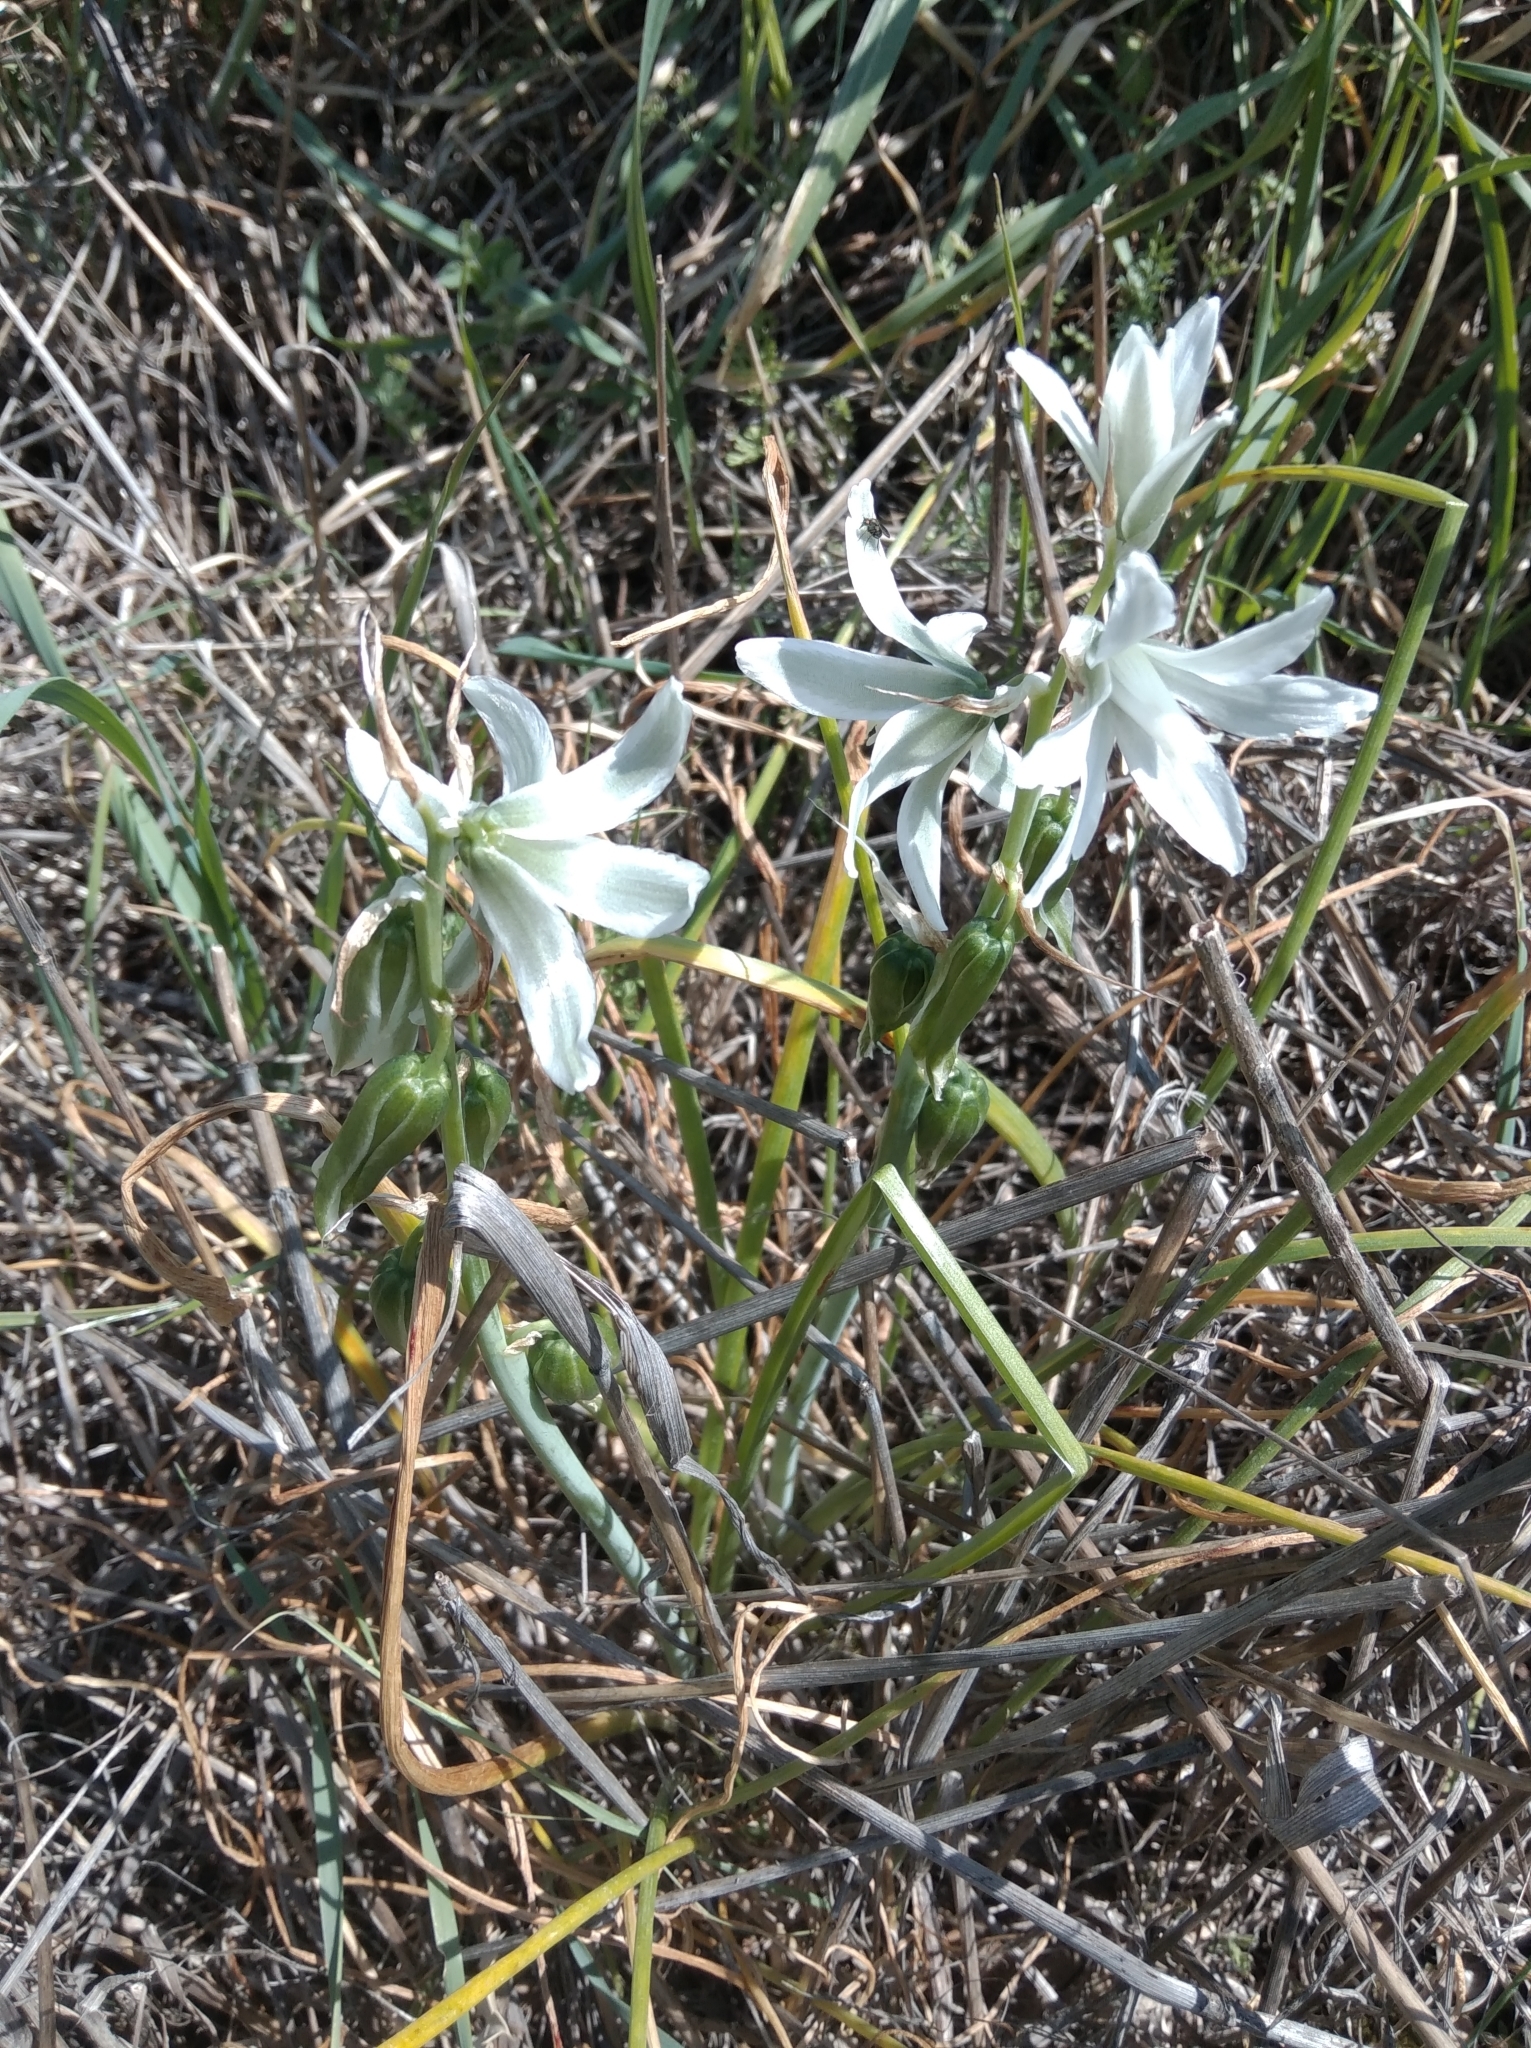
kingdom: Plantae
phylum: Tracheophyta
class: Liliopsida
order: Asparagales
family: Asparagaceae
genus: Ornithogalum
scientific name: Ornithogalum nutans
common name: Drooping star-of-bethlehem
